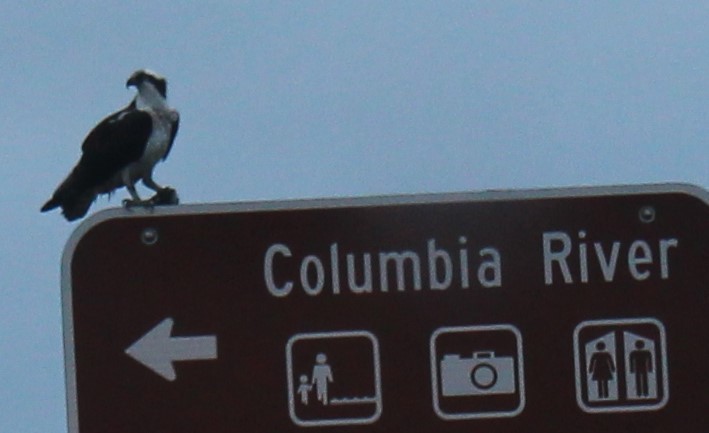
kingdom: Animalia
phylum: Chordata
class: Aves
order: Accipitriformes
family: Pandionidae
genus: Pandion
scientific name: Pandion haliaetus
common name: Osprey
